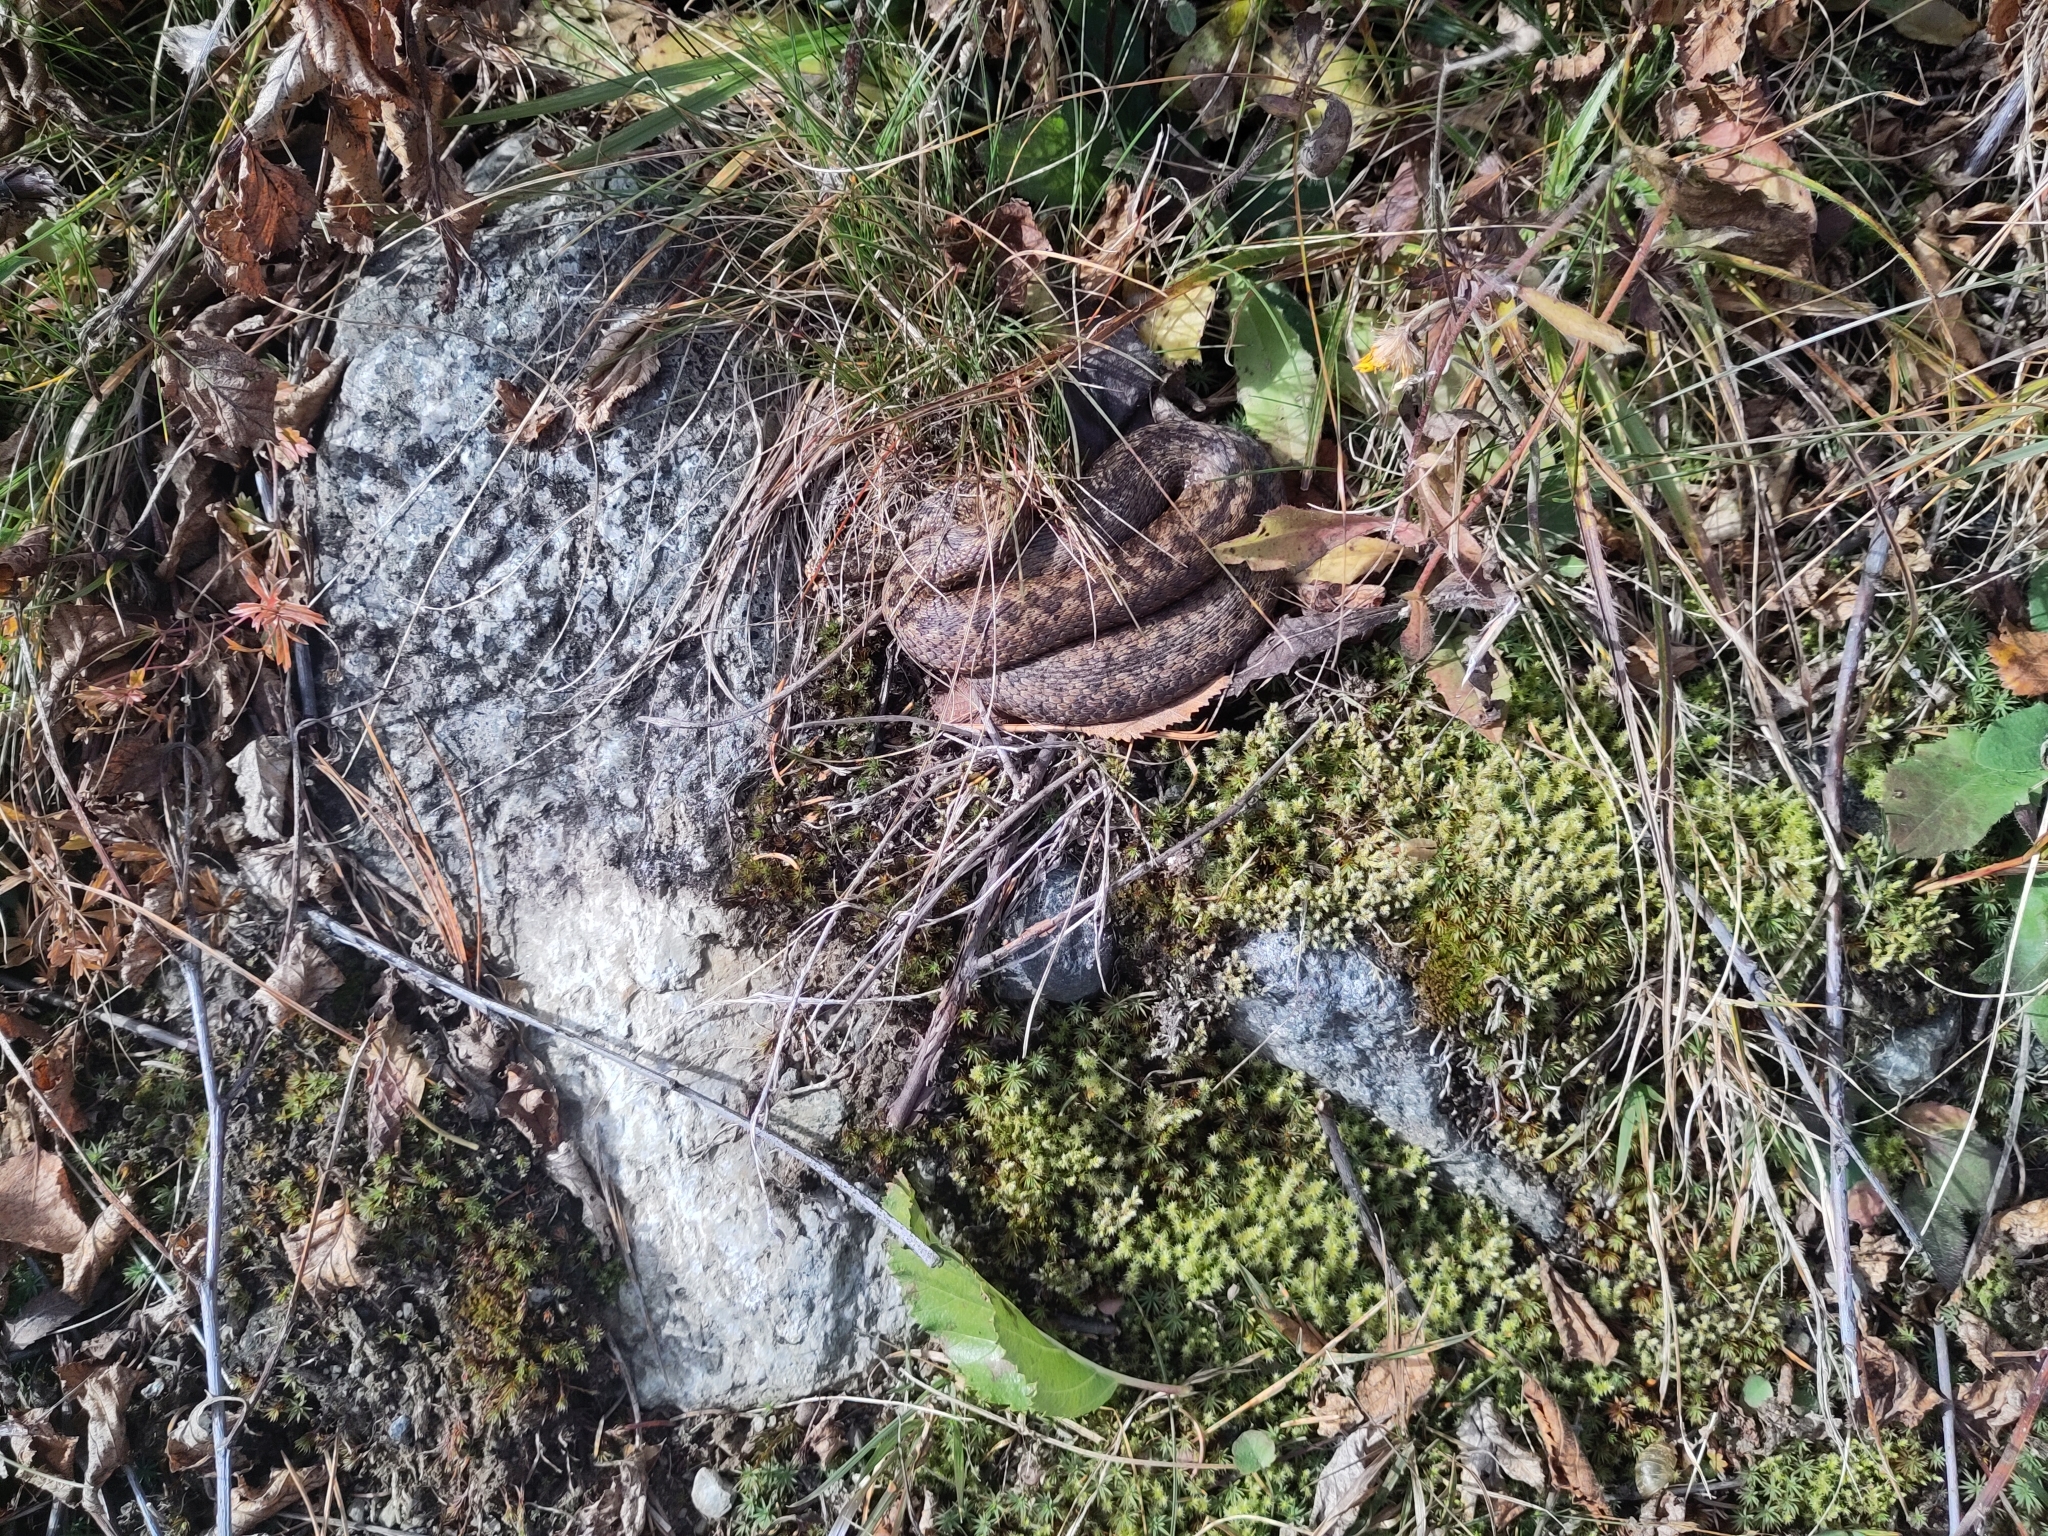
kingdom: Animalia
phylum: Chordata
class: Squamata
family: Viperidae
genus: Vipera
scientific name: Vipera berus
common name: Adder
